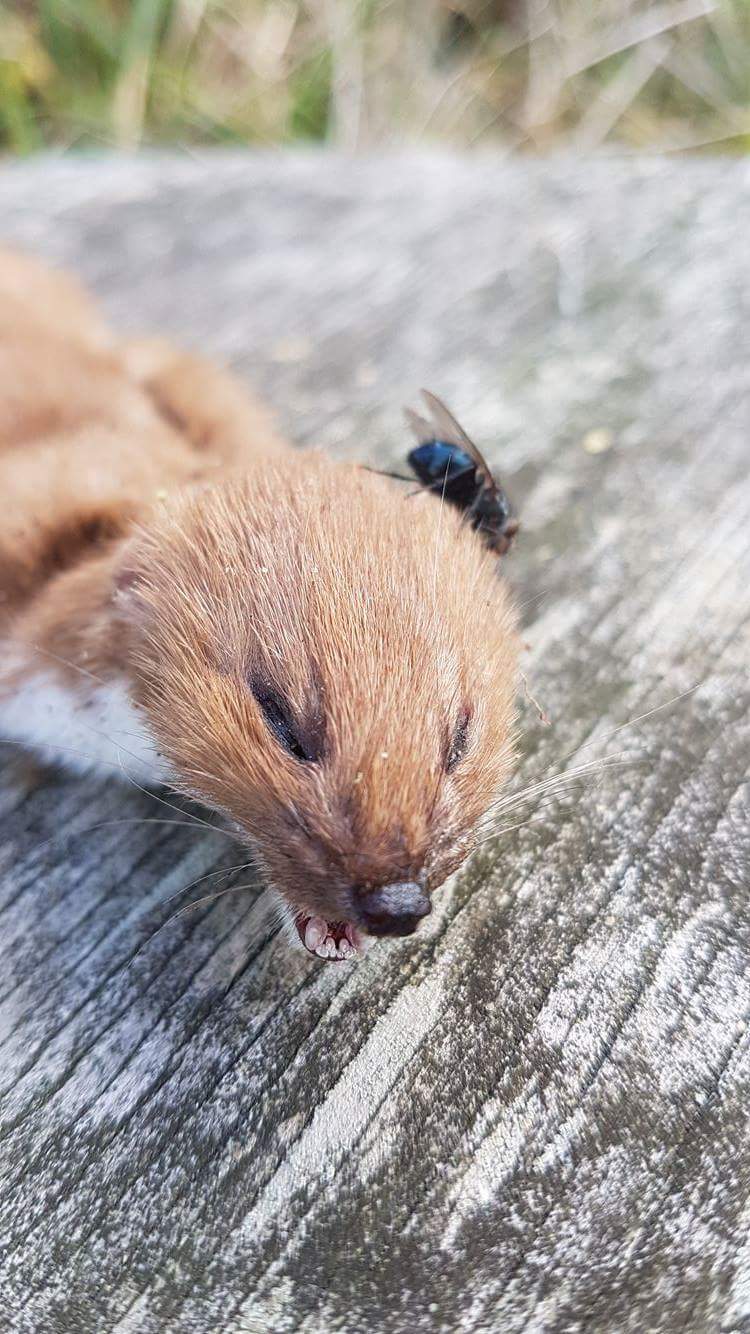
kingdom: Animalia
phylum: Chordata
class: Mammalia
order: Carnivora
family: Mustelidae
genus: Mustela
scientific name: Mustela nivalis
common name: Least weasel
